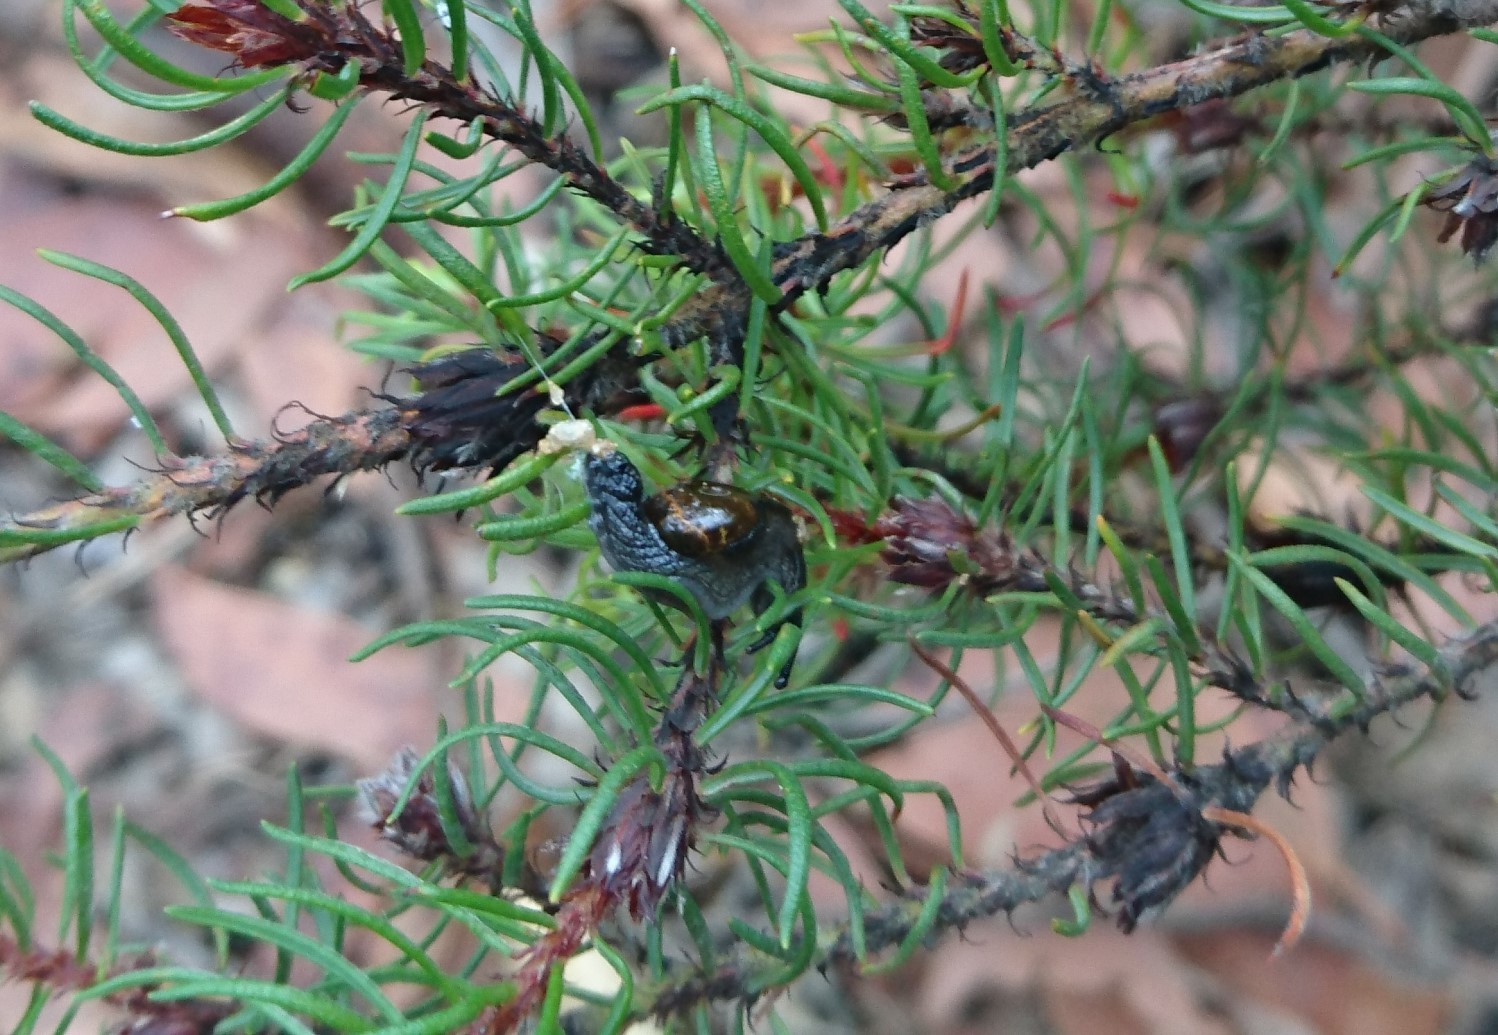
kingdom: Animalia
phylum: Mollusca
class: Gastropoda
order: Stylommatophora
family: Helicarionidae
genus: Helicarion
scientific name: Helicarion cuvieri
